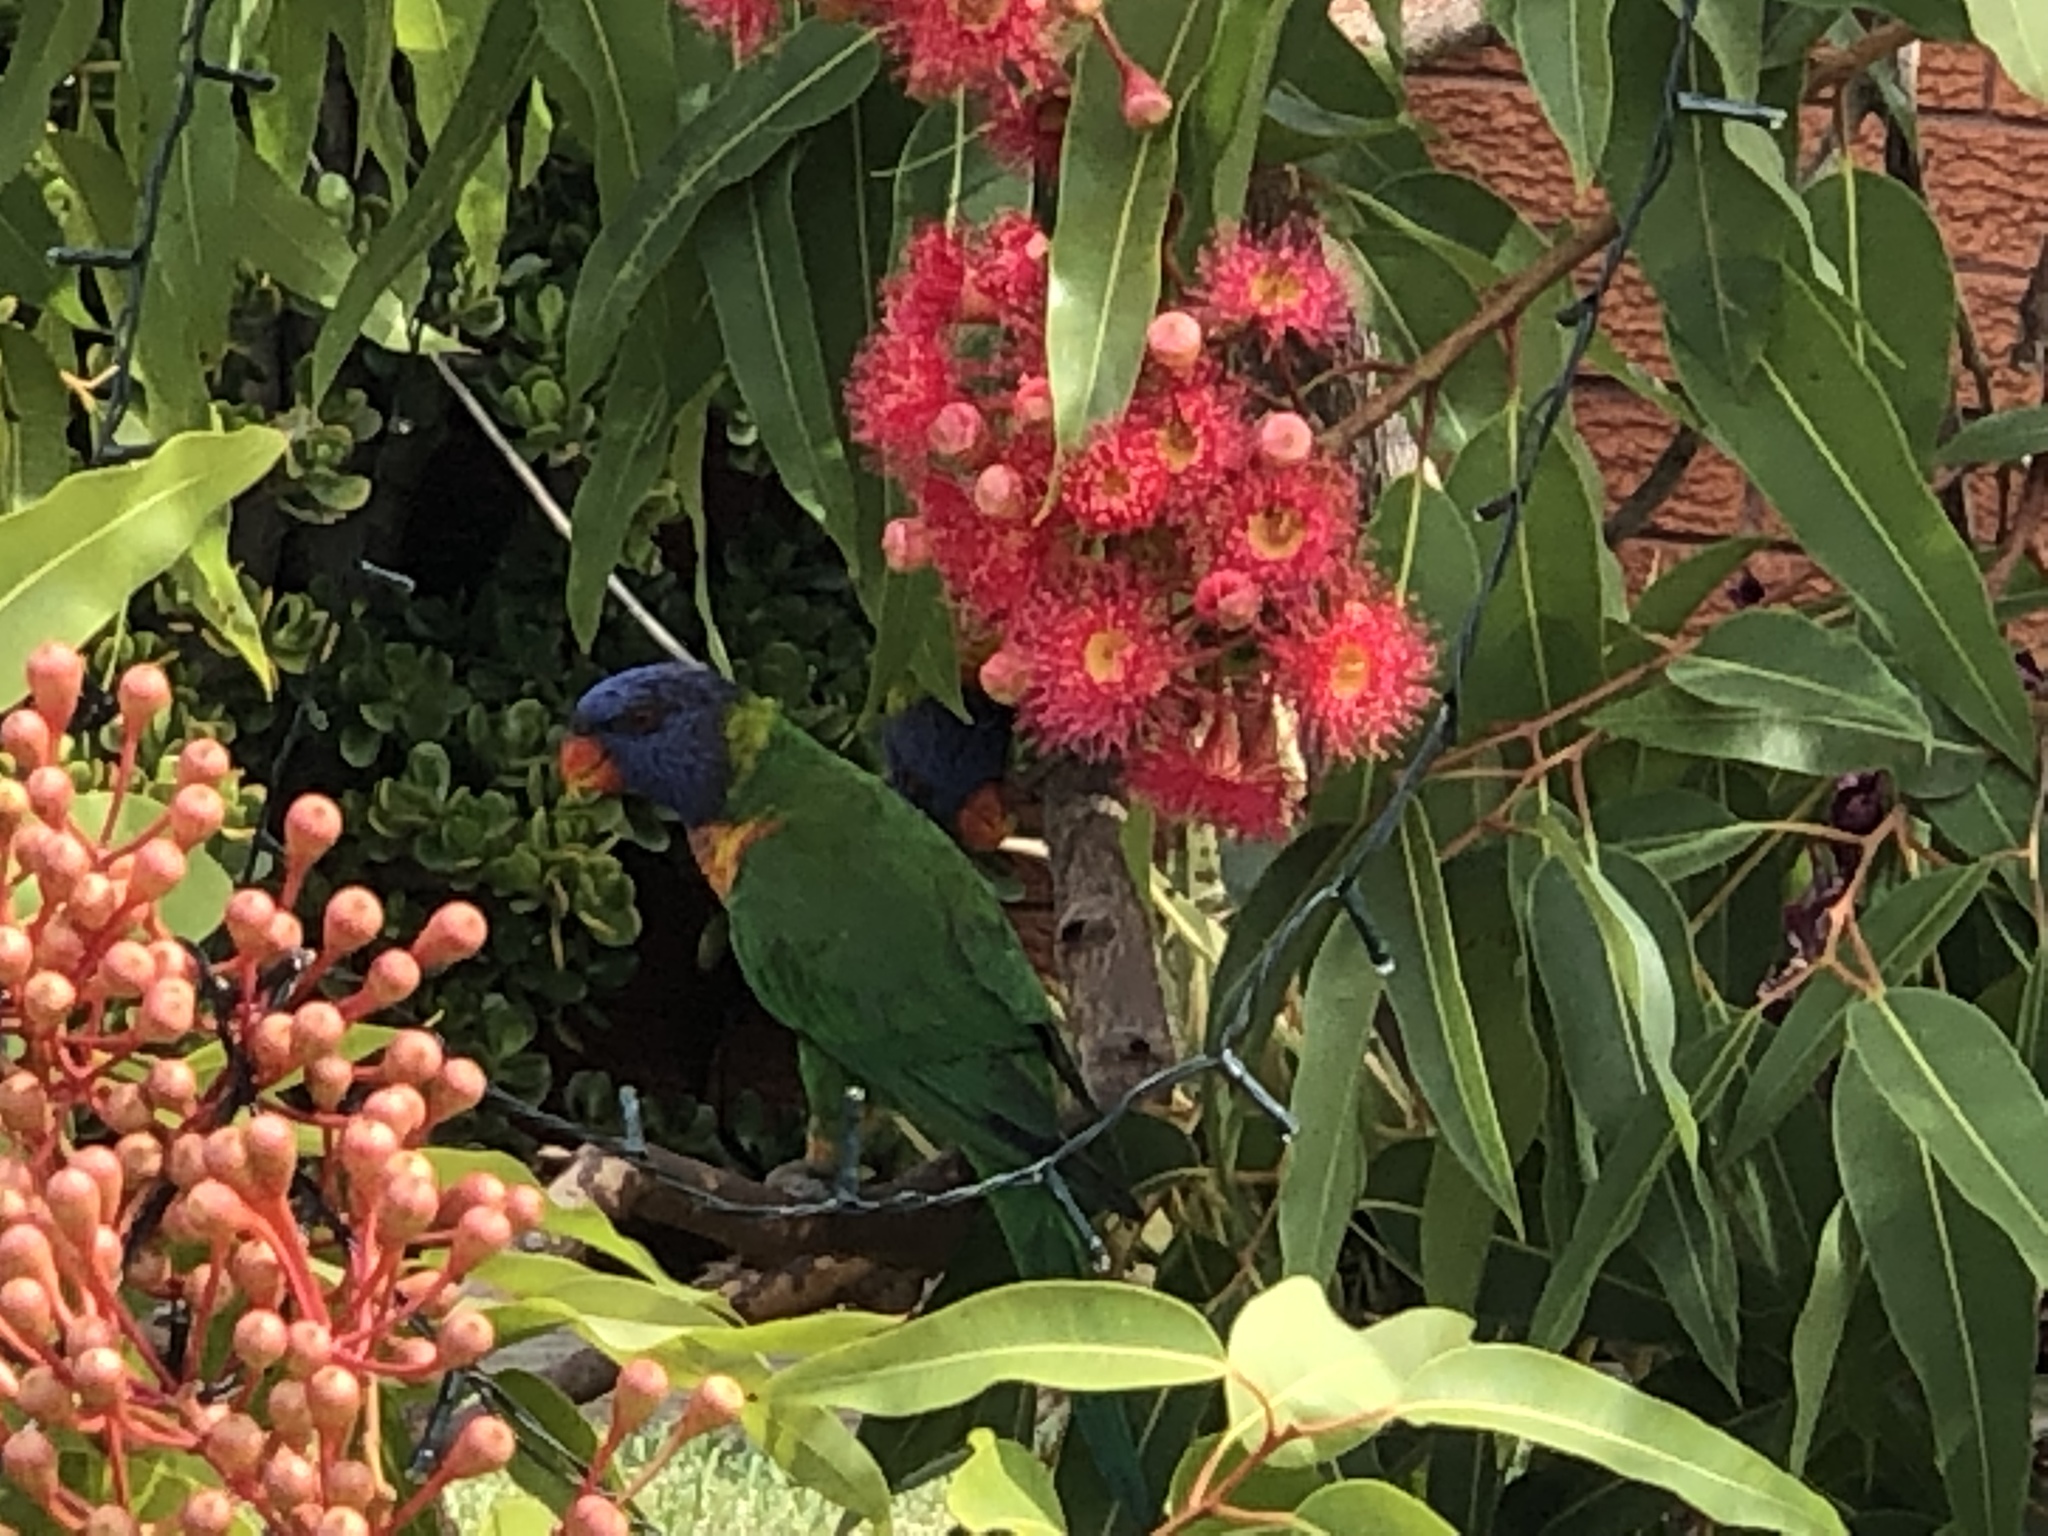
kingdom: Animalia
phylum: Chordata
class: Aves
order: Psittaciformes
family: Psittacidae
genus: Trichoglossus
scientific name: Trichoglossus haematodus
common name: Coconut lorikeet
